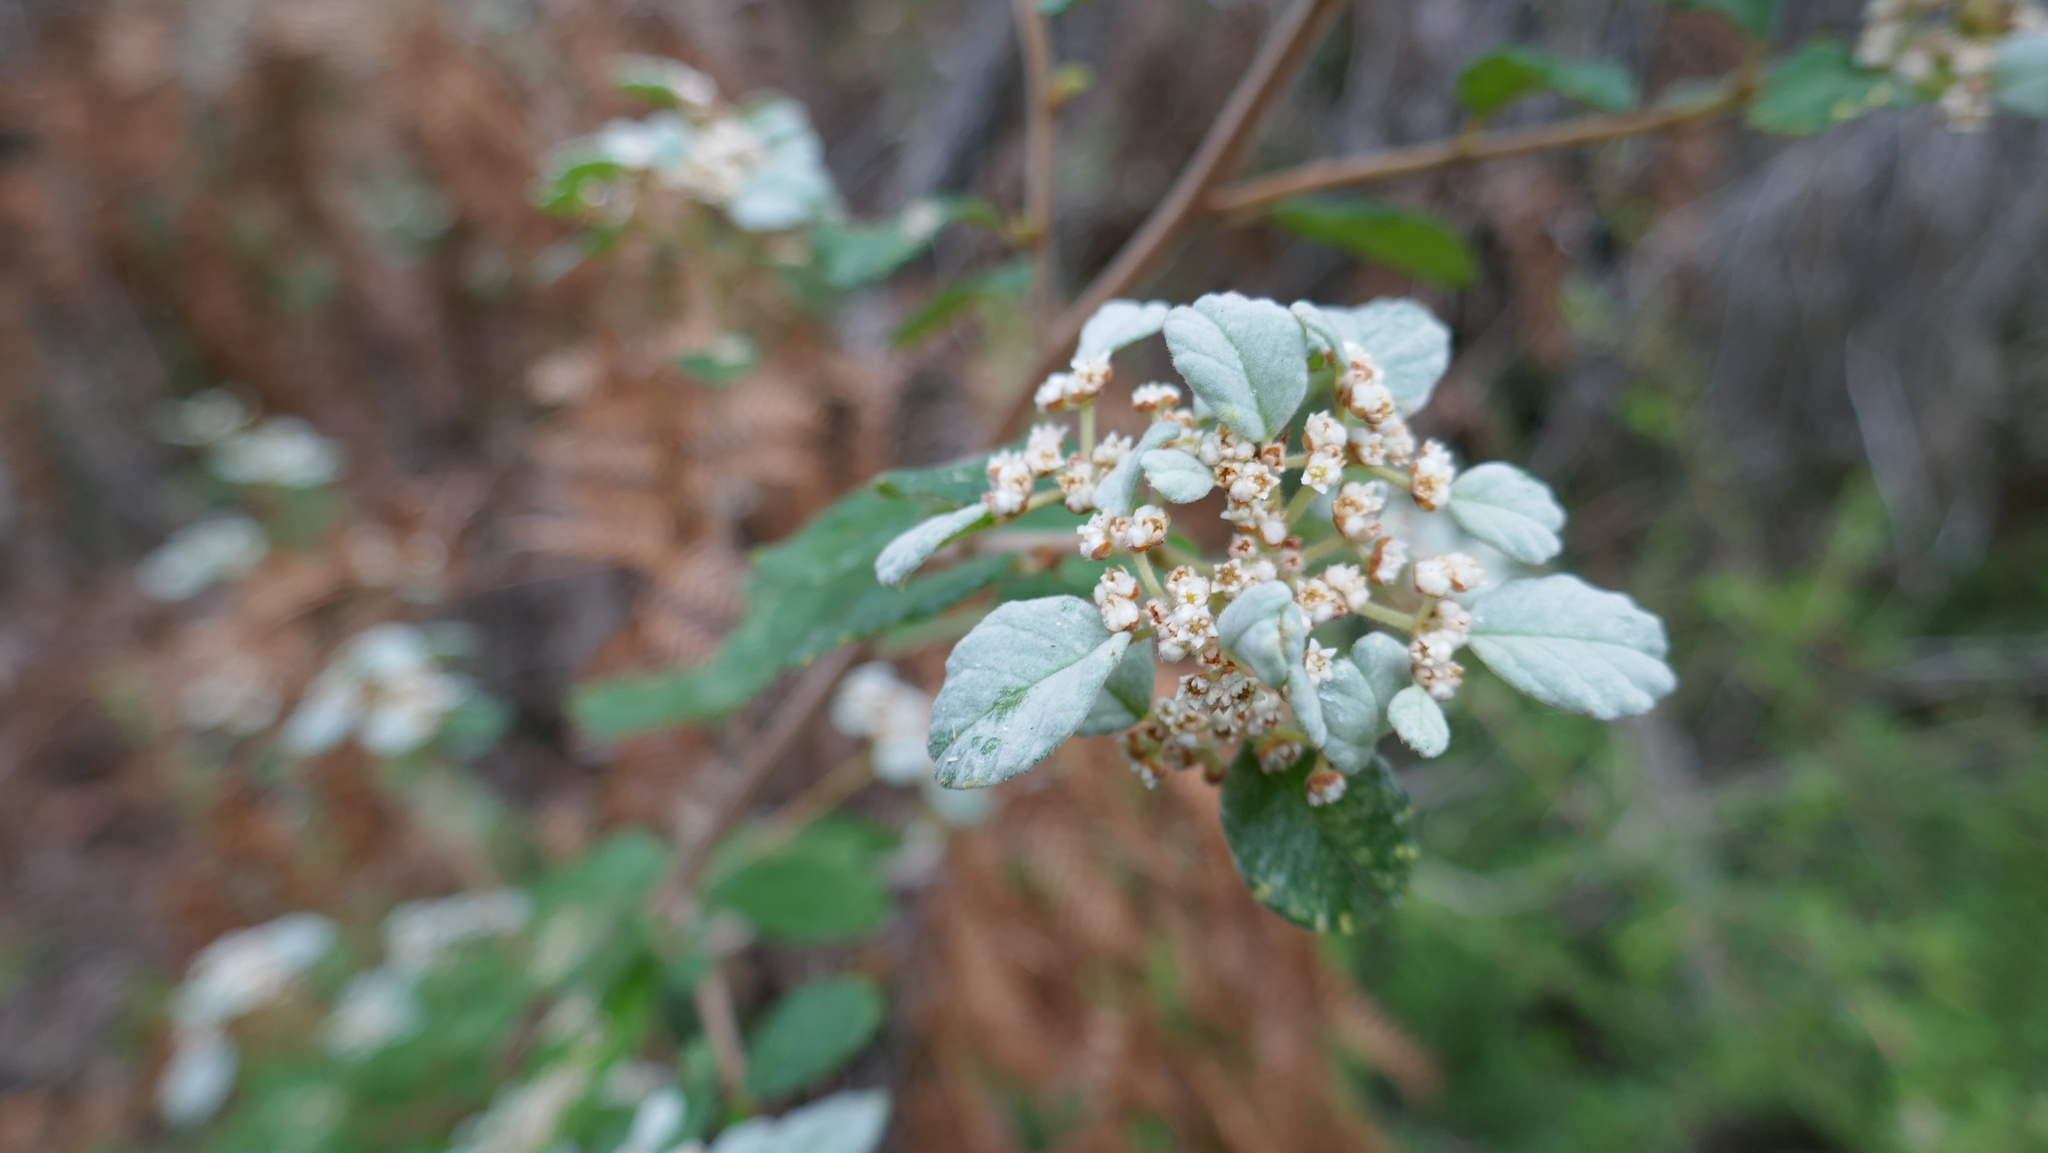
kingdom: Plantae
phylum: Tracheophyta
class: Magnoliopsida
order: Rosales
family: Rhamnaceae
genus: Spyridium
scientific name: Spyridium parvifolium
